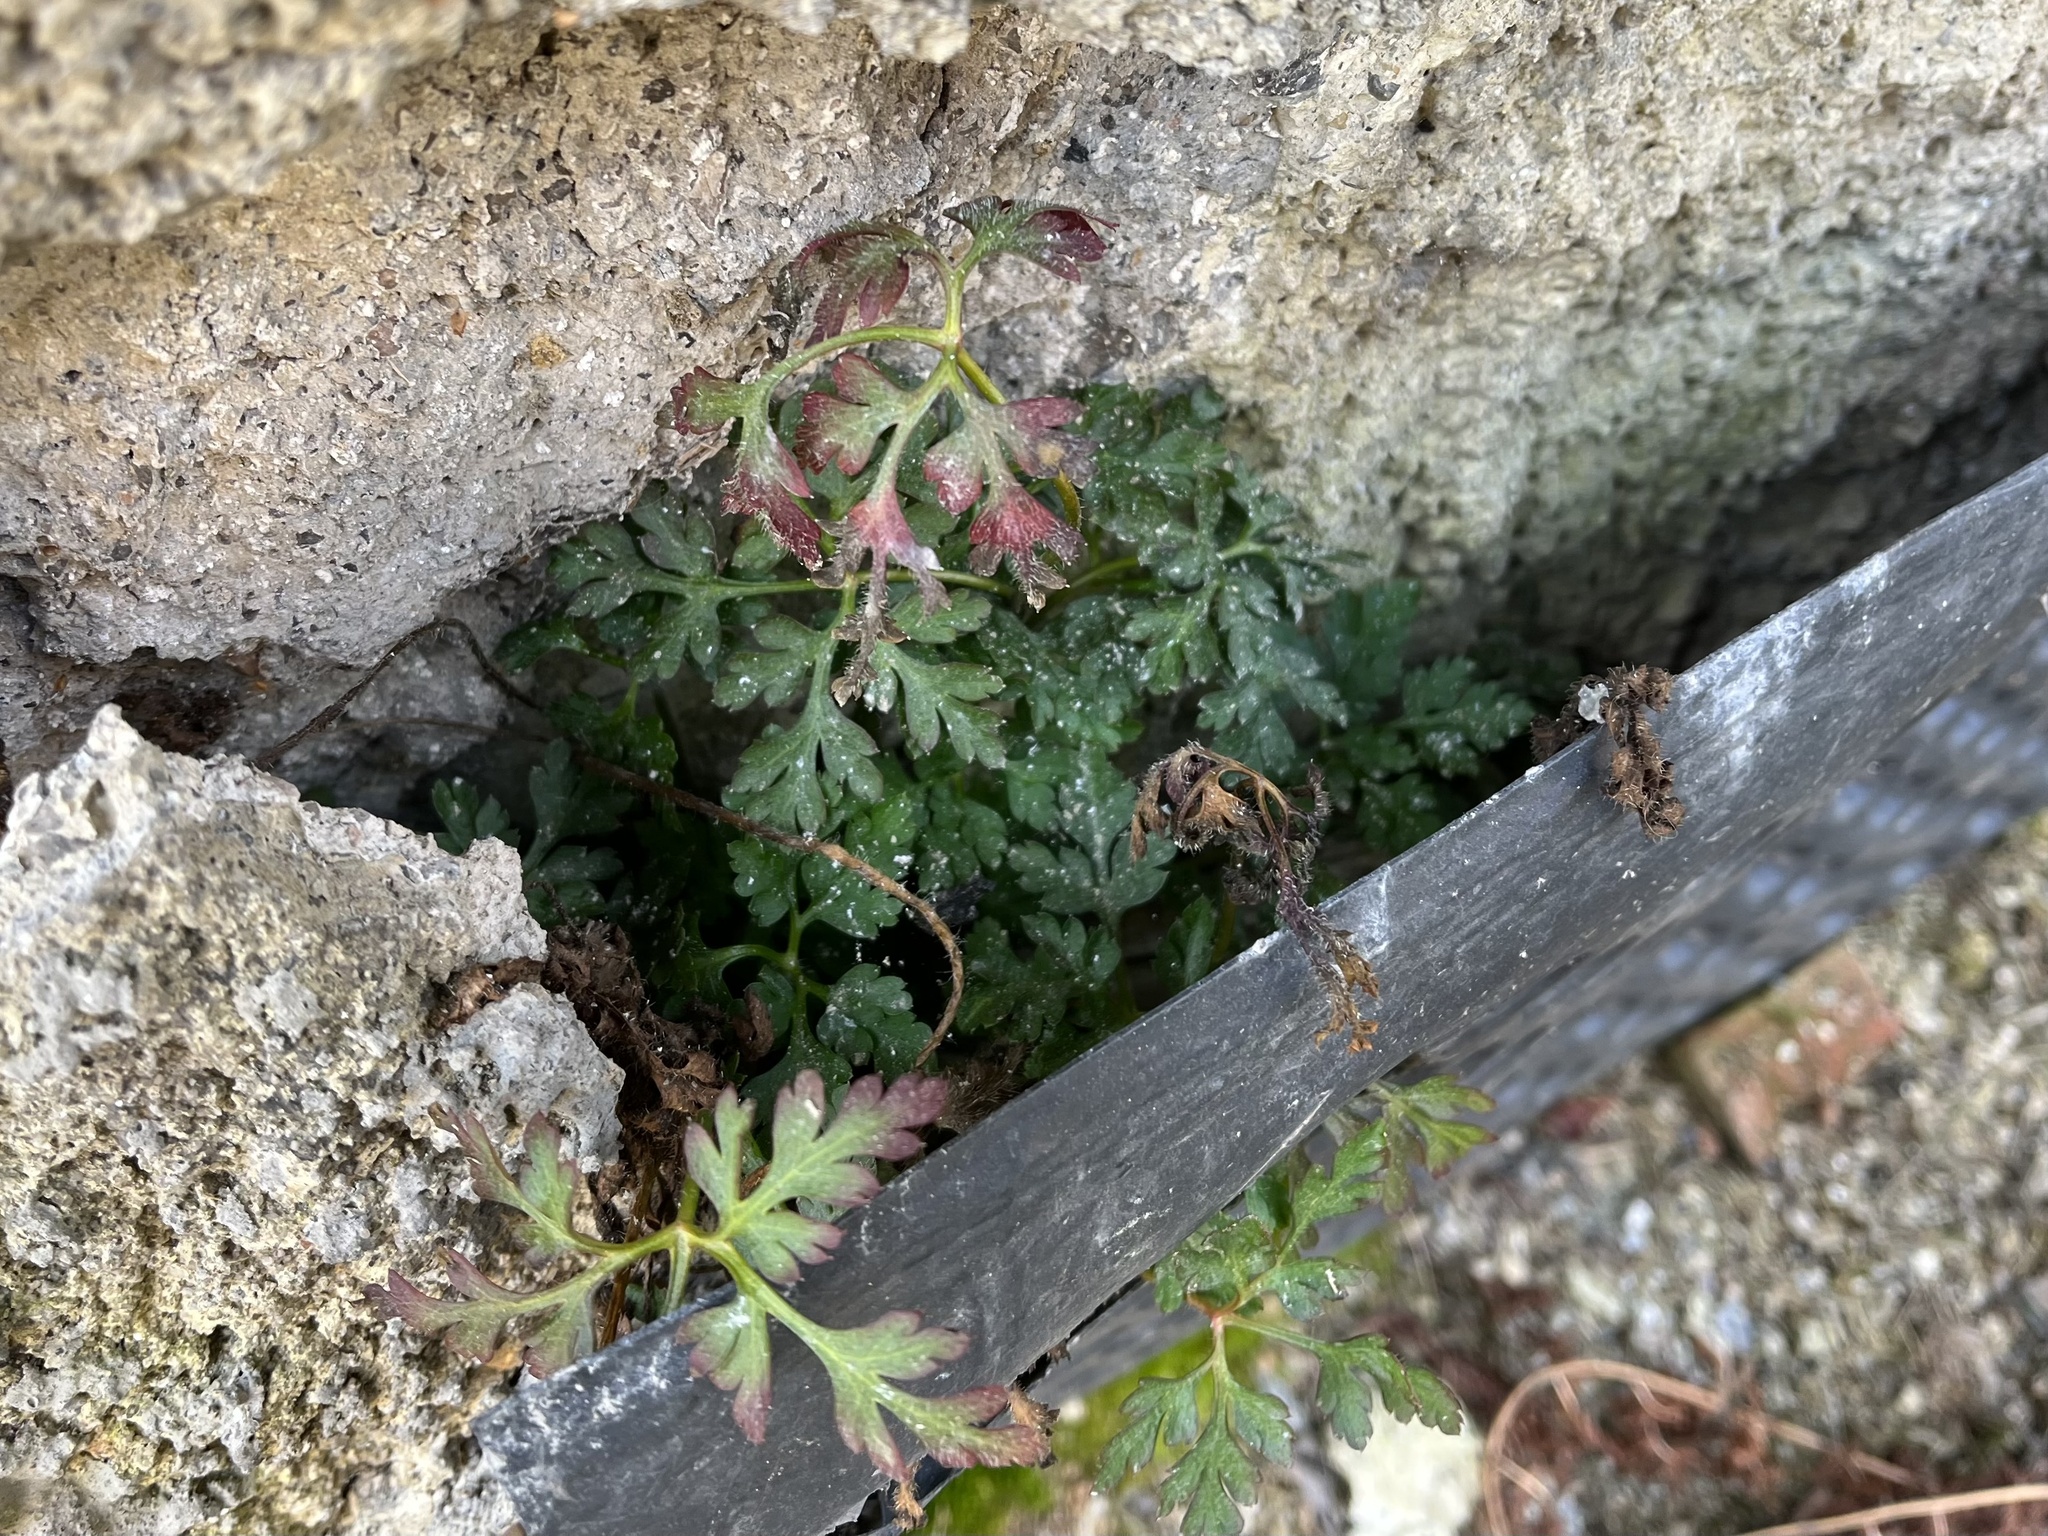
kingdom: Plantae
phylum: Tracheophyta
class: Magnoliopsida
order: Geraniales
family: Geraniaceae
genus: Geranium
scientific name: Geranium robertianum
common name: Herb-robert
